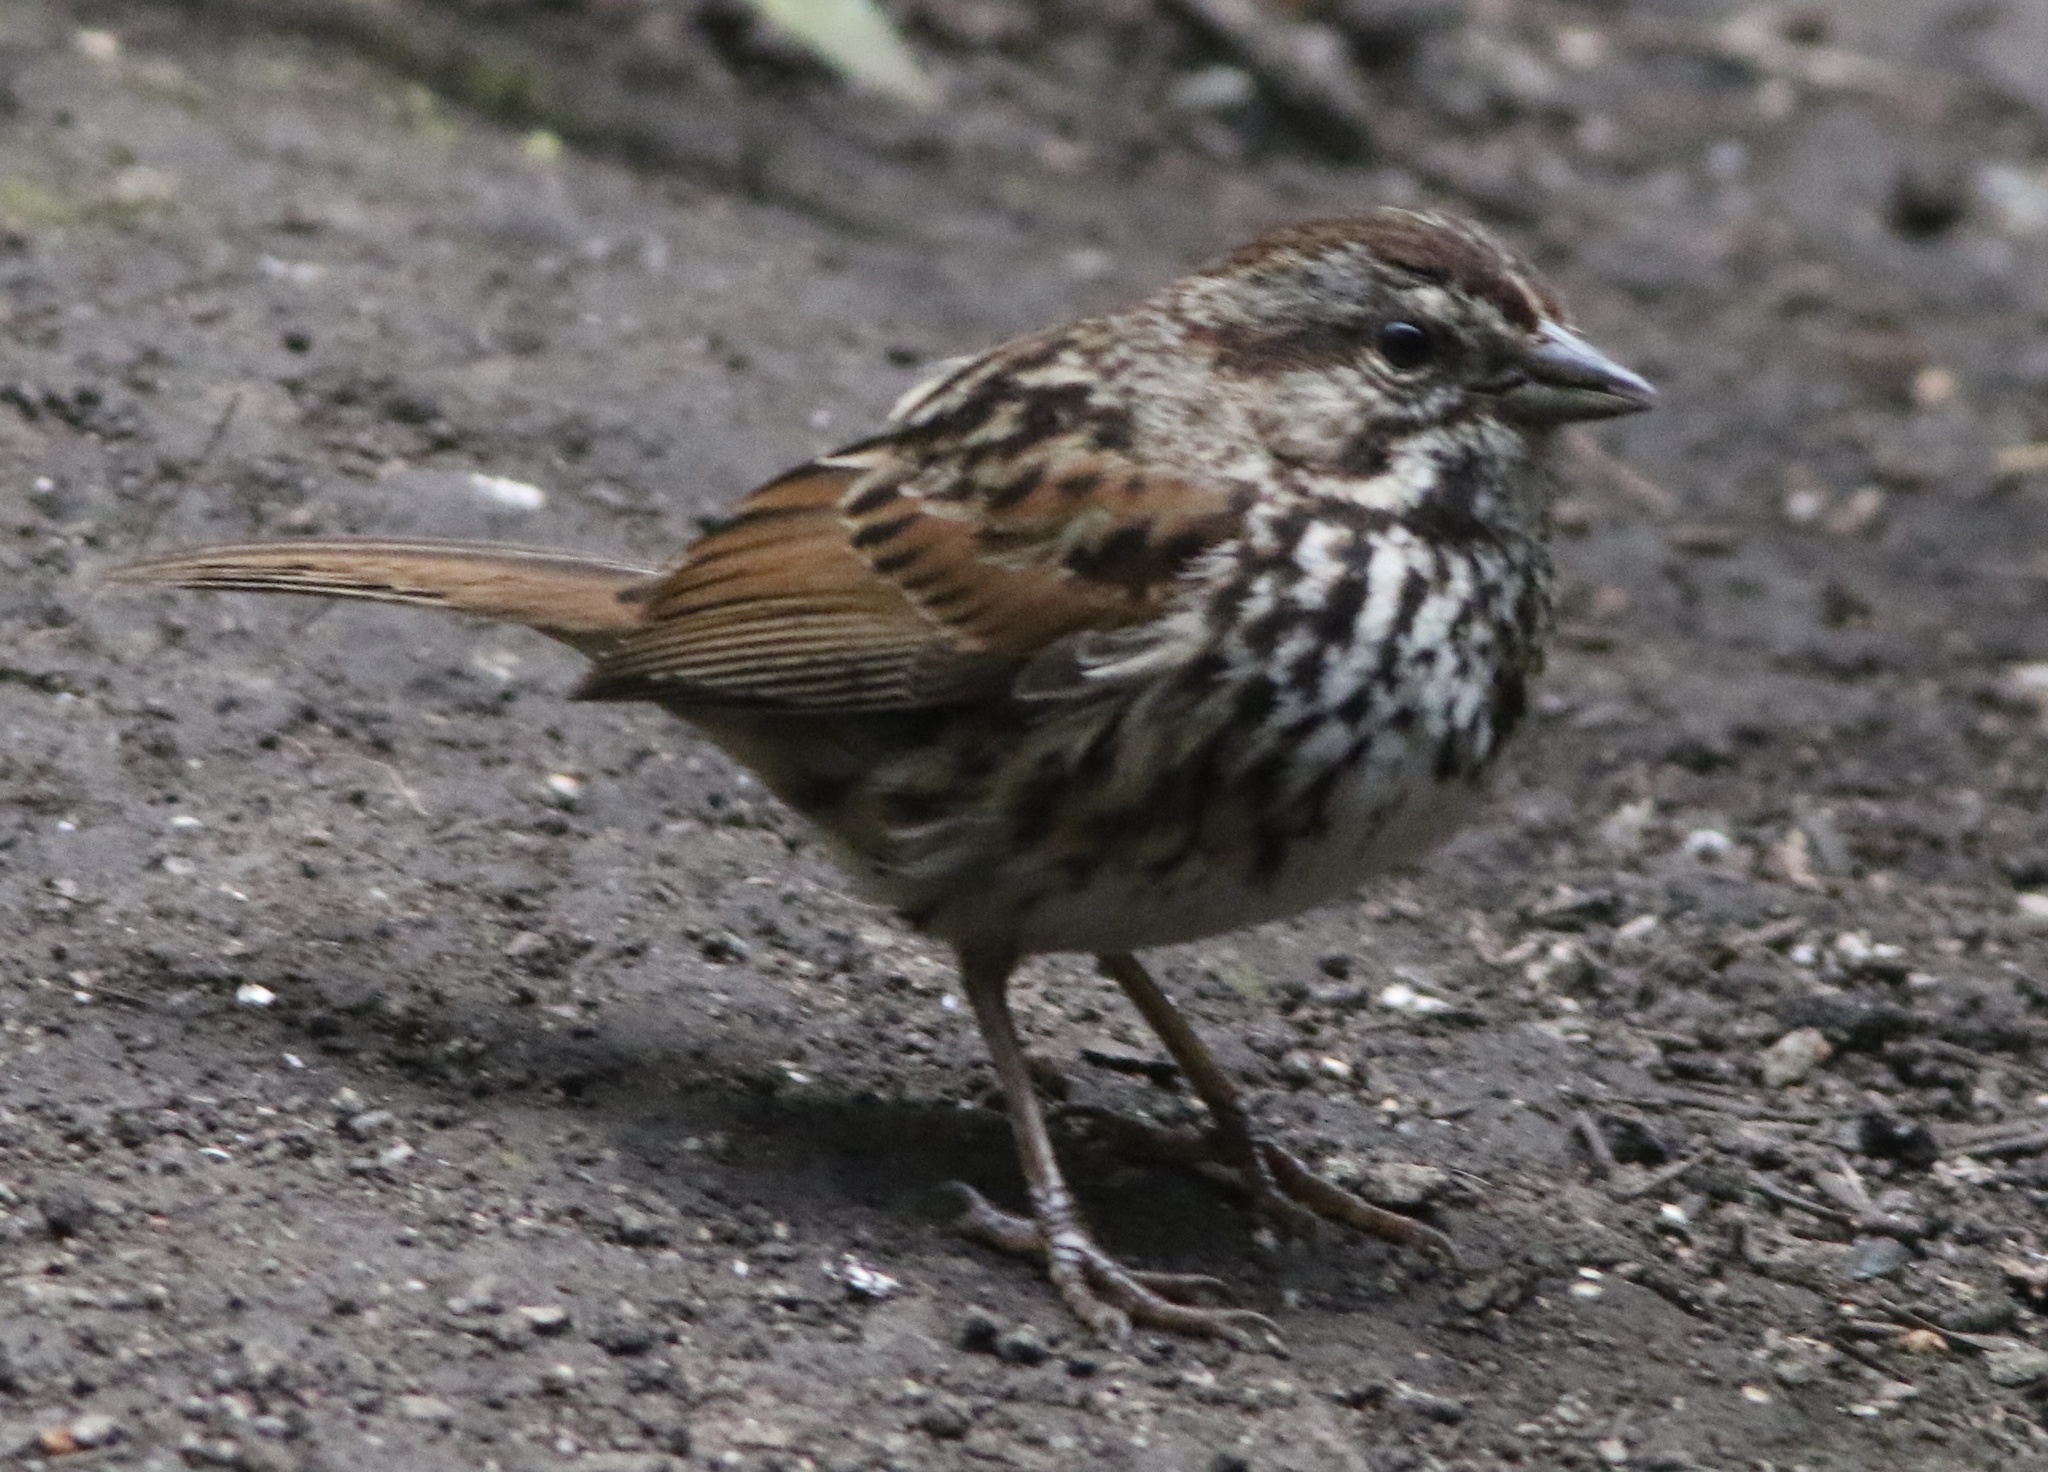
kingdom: Animalia
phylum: Chordata
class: Aves
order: Passeriformes
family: Passerellidae
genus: Melospiza
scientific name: Melospiza melodia
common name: Song sparrow
